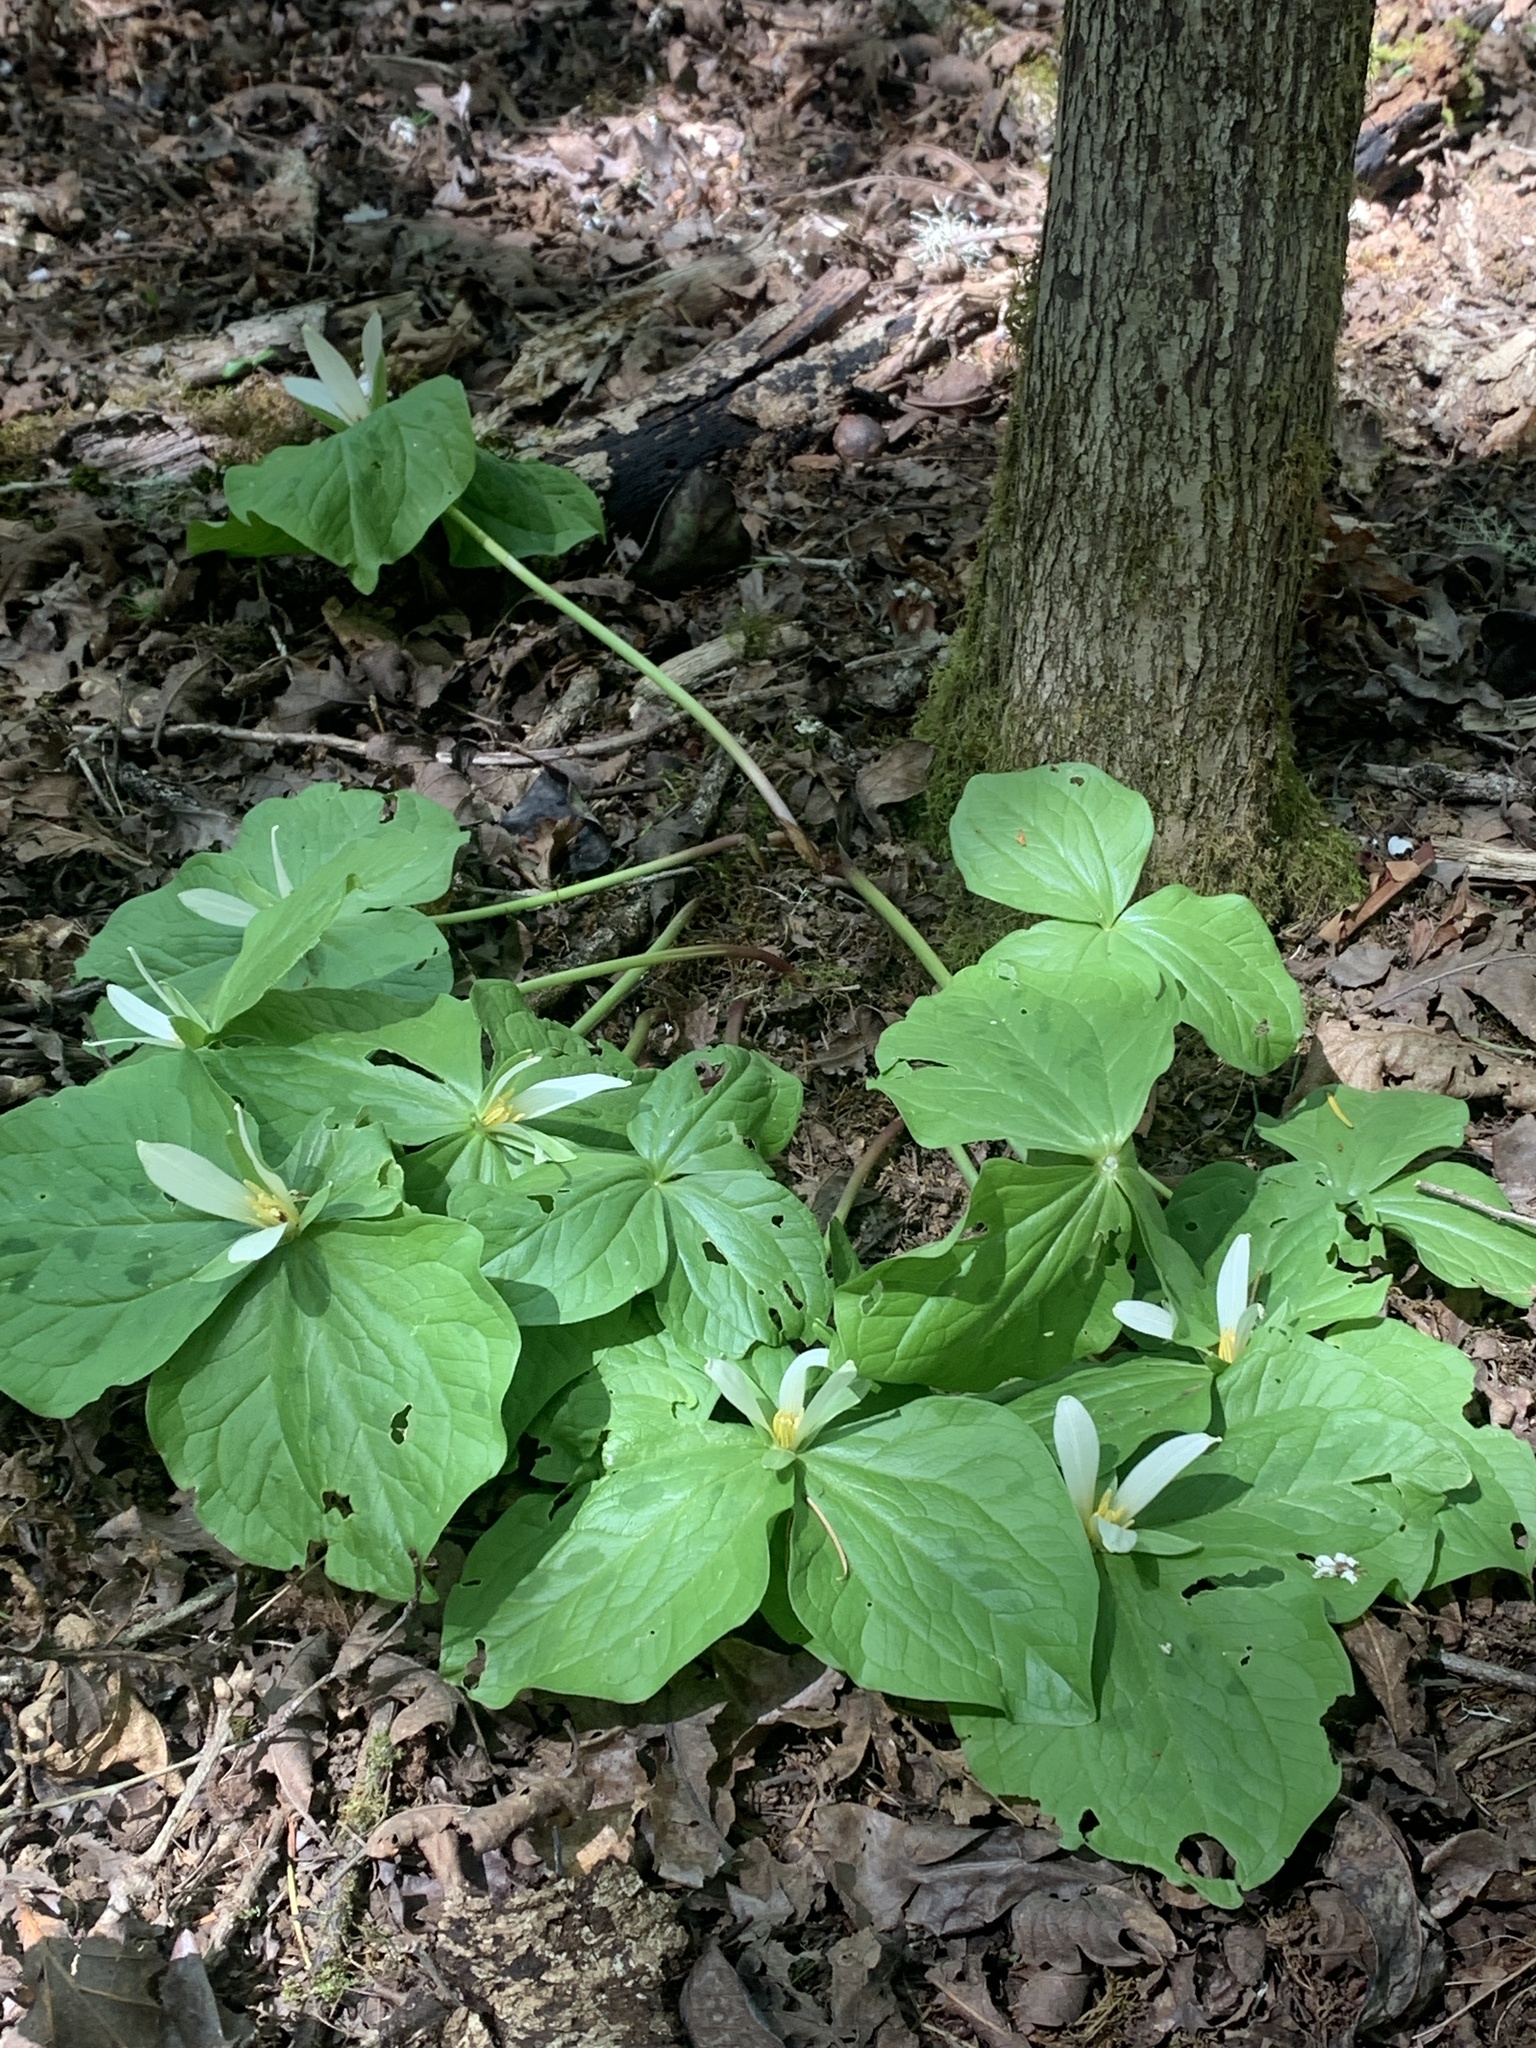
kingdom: Plantae
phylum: Tracheophyta
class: Liliopsida
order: Liliales
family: Melanthiaceae
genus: Trillium
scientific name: Trillium albidum
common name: Freeman's trillium
